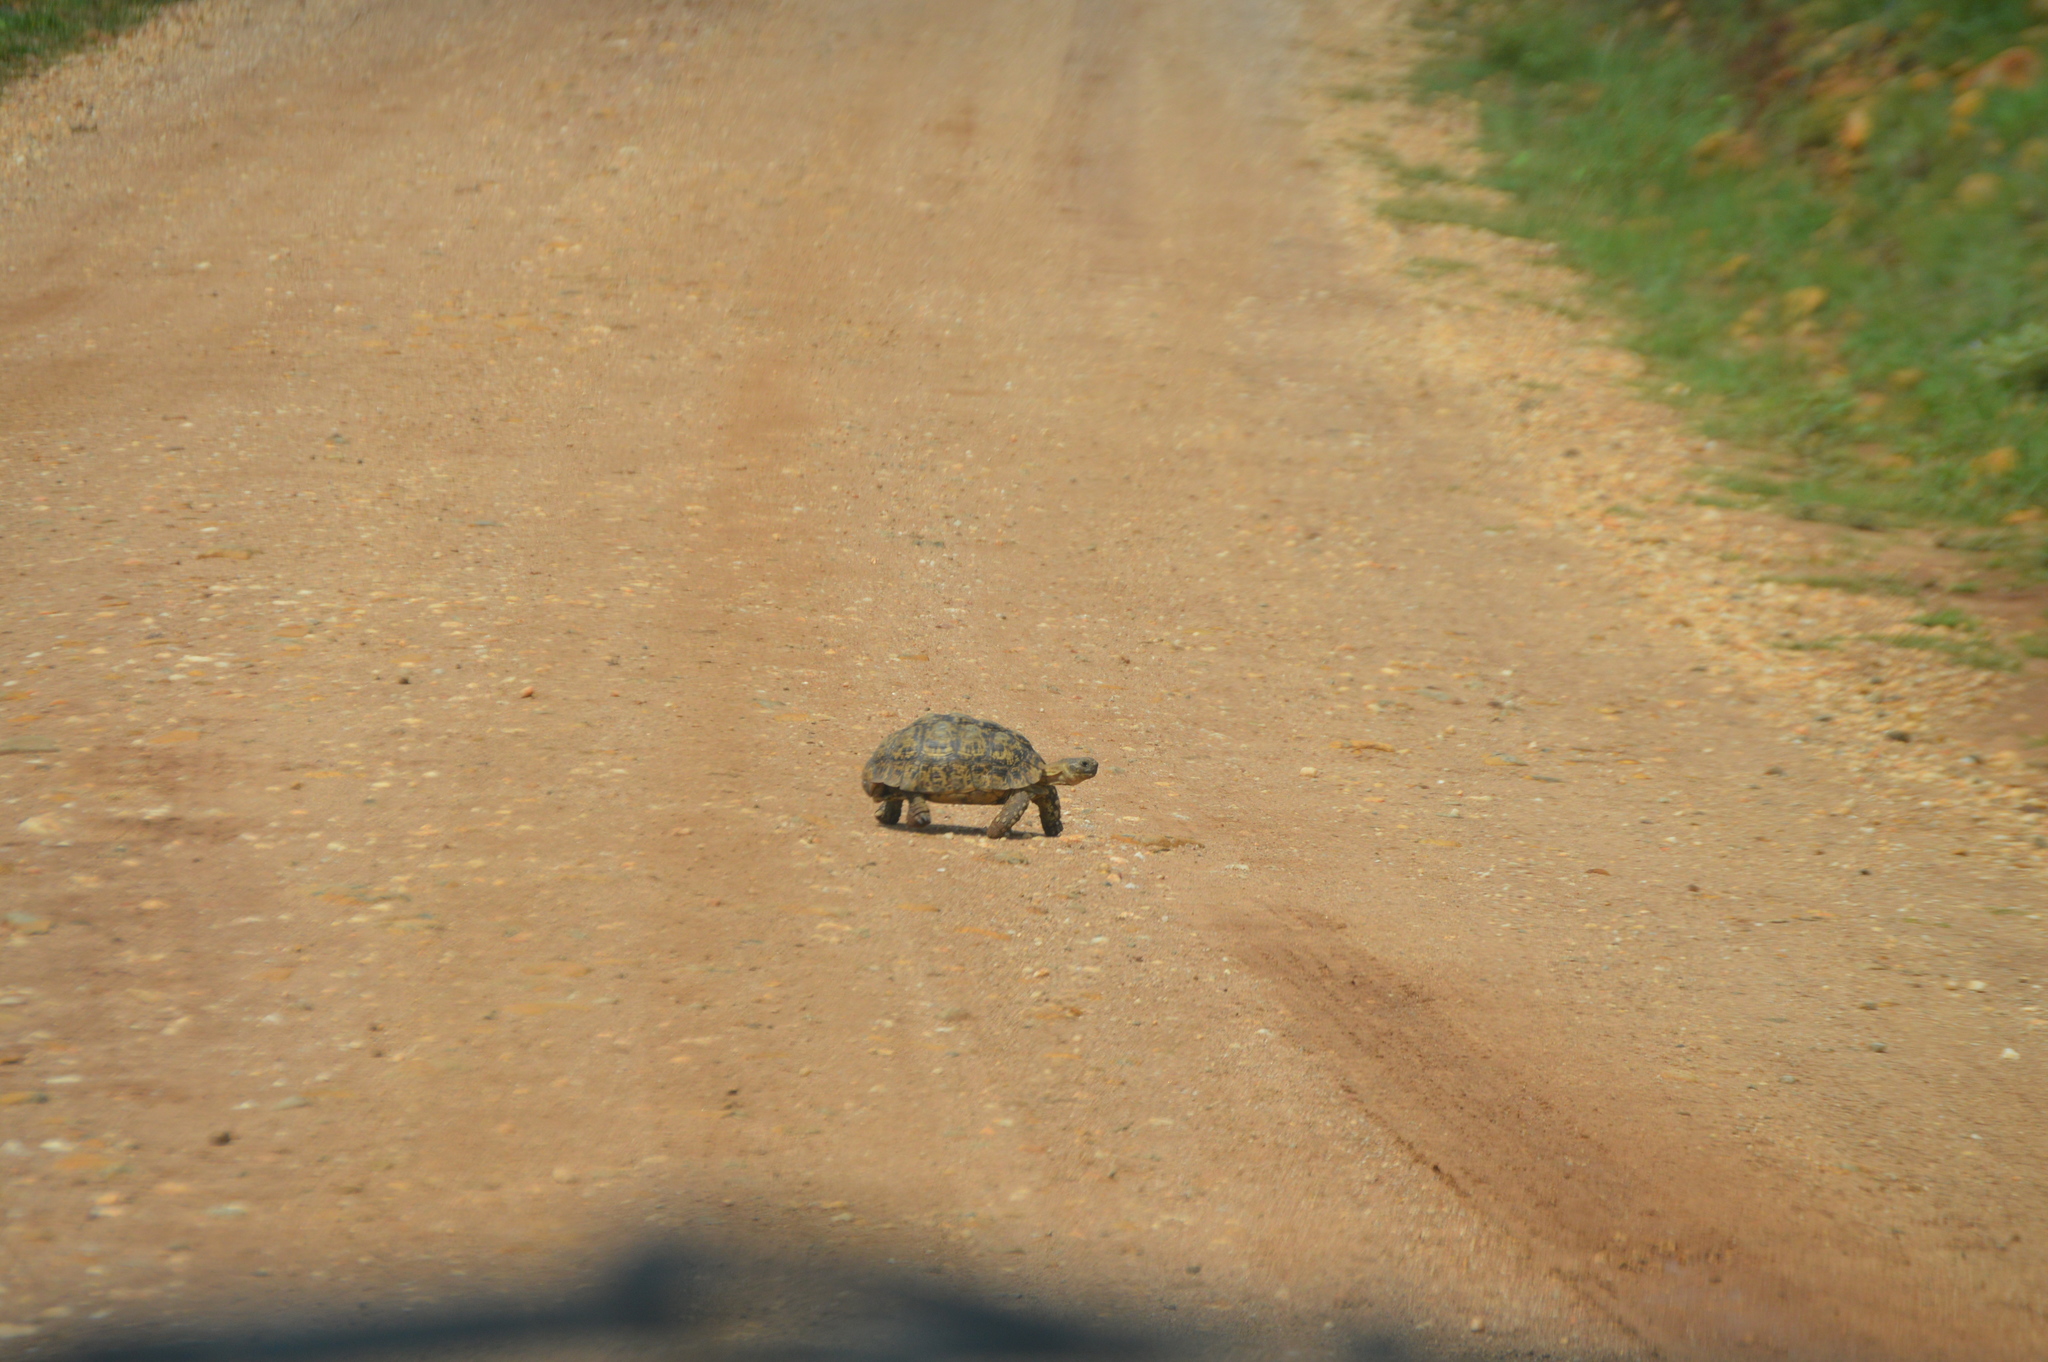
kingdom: Animalia
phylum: Chordata
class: Testudines
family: Testudinidae
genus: Stigmochelys
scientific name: Stigmochelys pardalis
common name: Leopard tortoise
